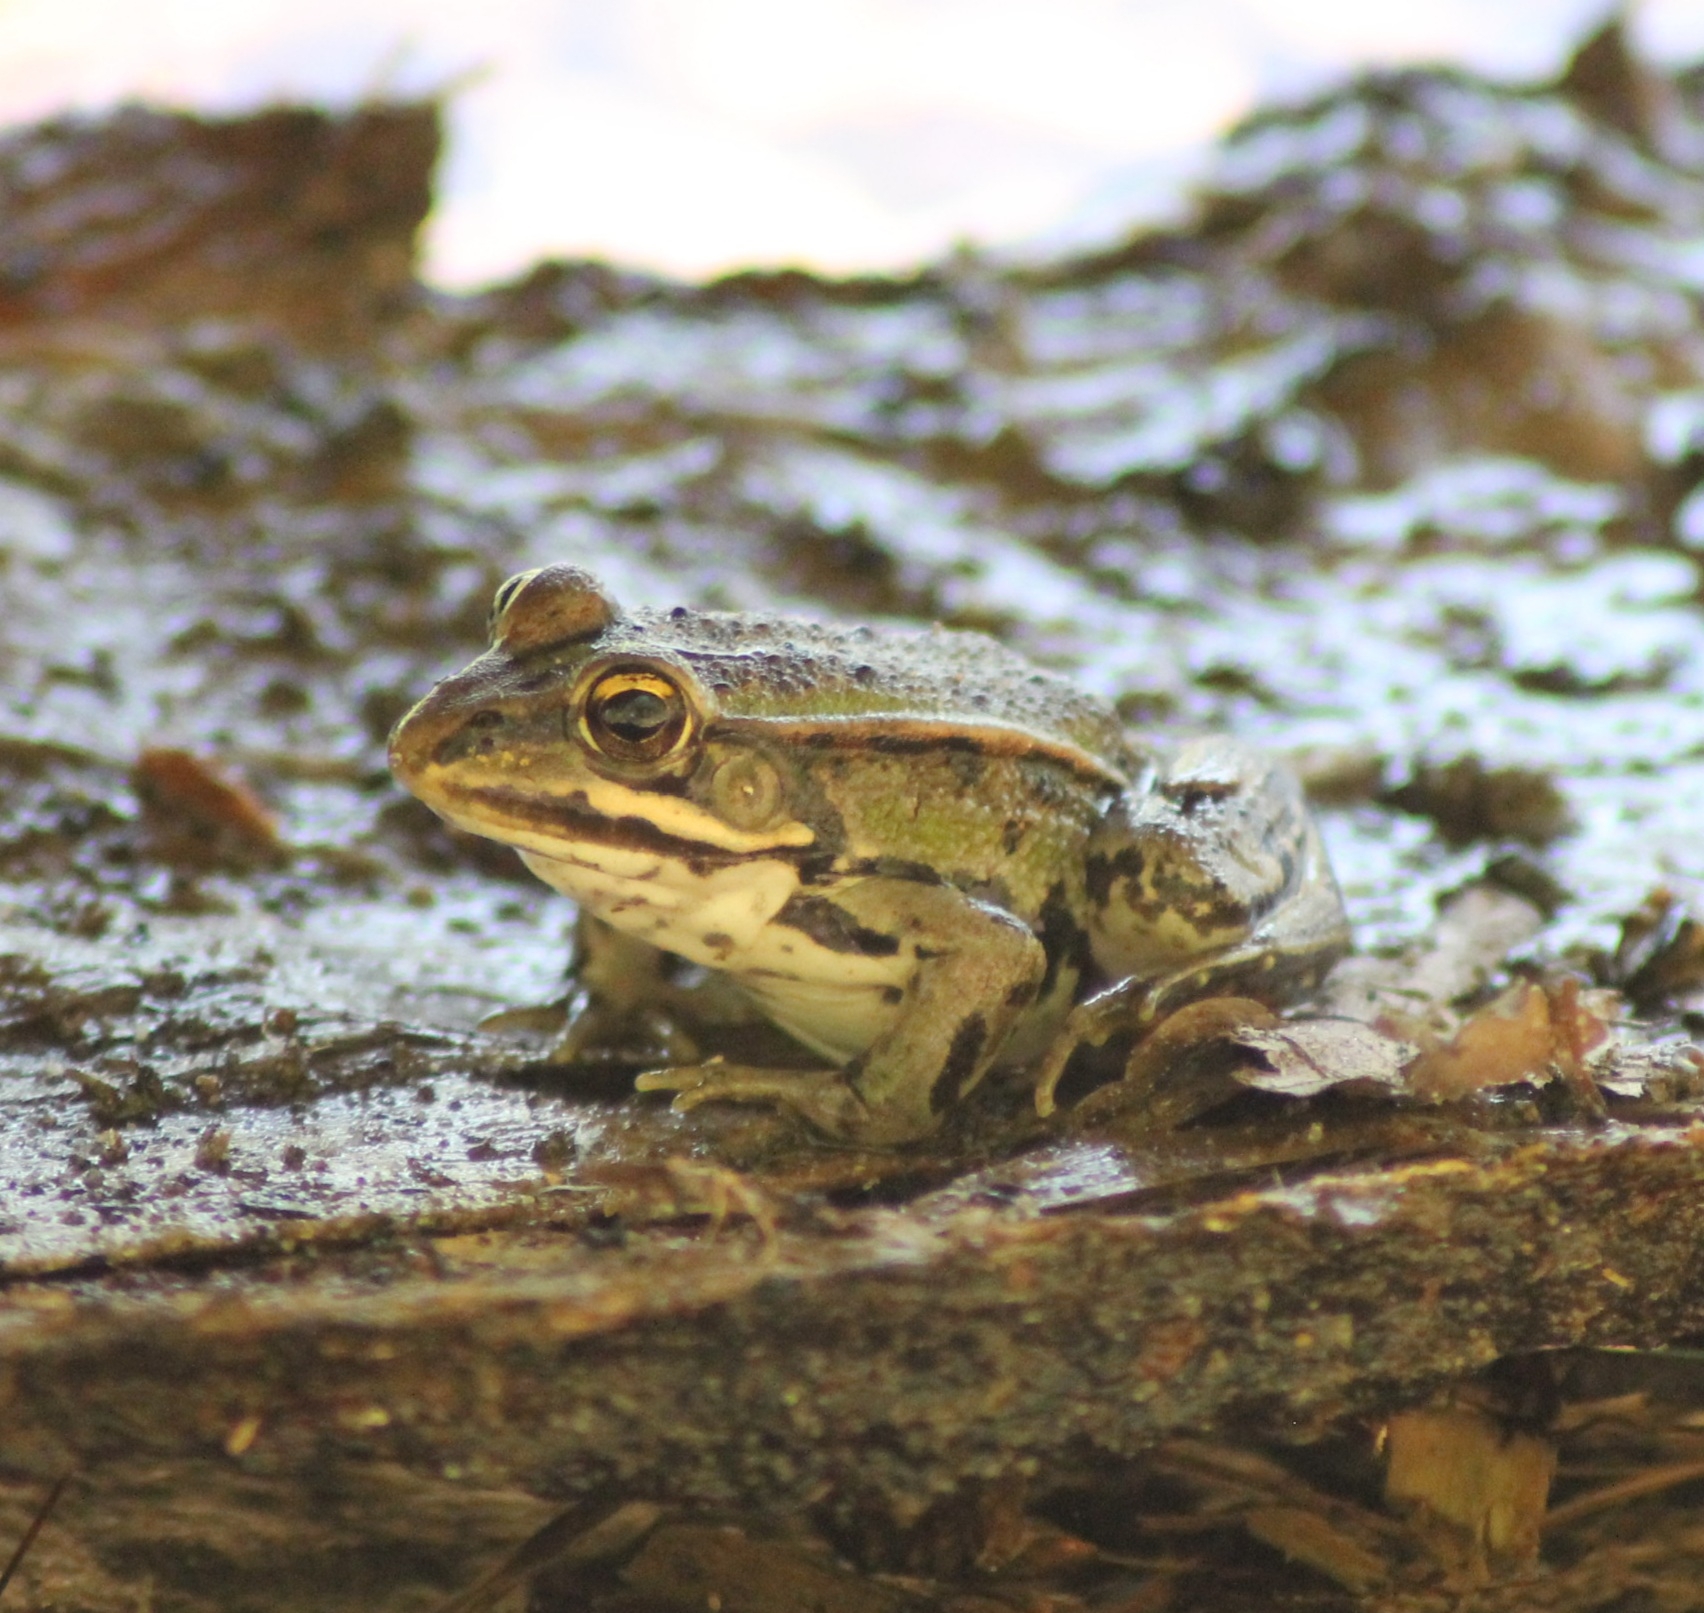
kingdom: Animalia
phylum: Chordata
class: Amphibia
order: Anura
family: Ranidae
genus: Pelophylax
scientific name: Pelophylax
